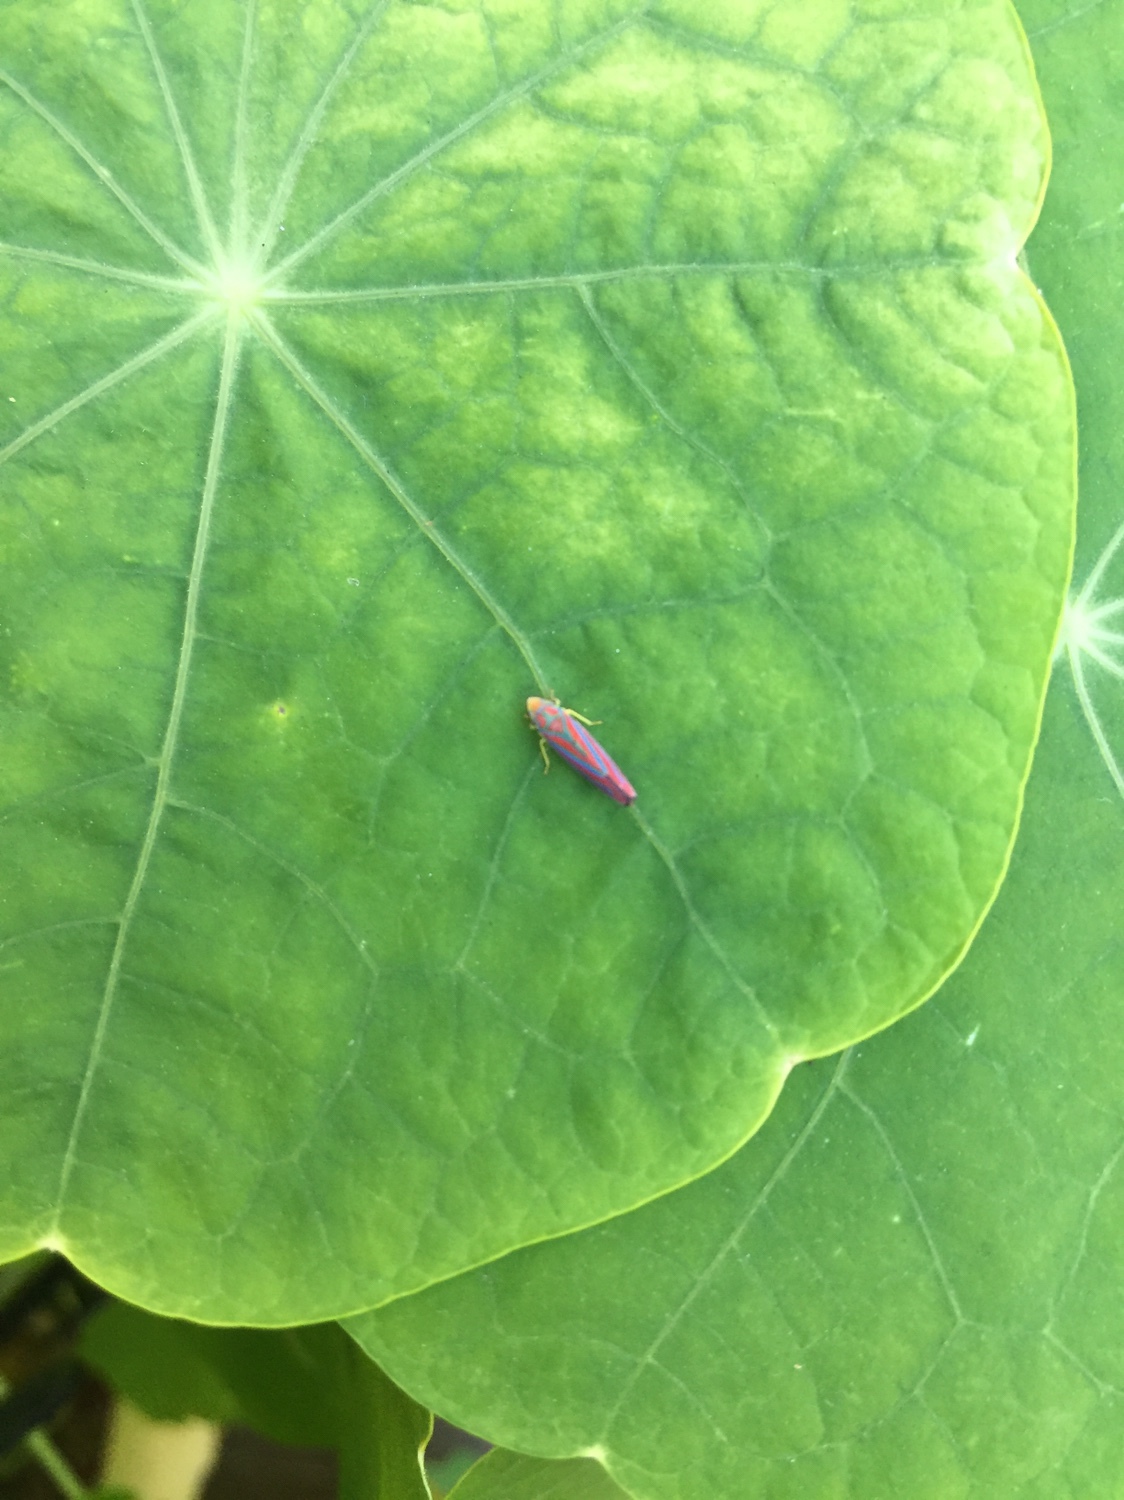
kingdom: Animalia
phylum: Arthropoda
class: Insecta
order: Hemiptera
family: Cicadellidae
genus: Graphocephala
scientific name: Graphocephala coccinea
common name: Candy-striped leafhopper
